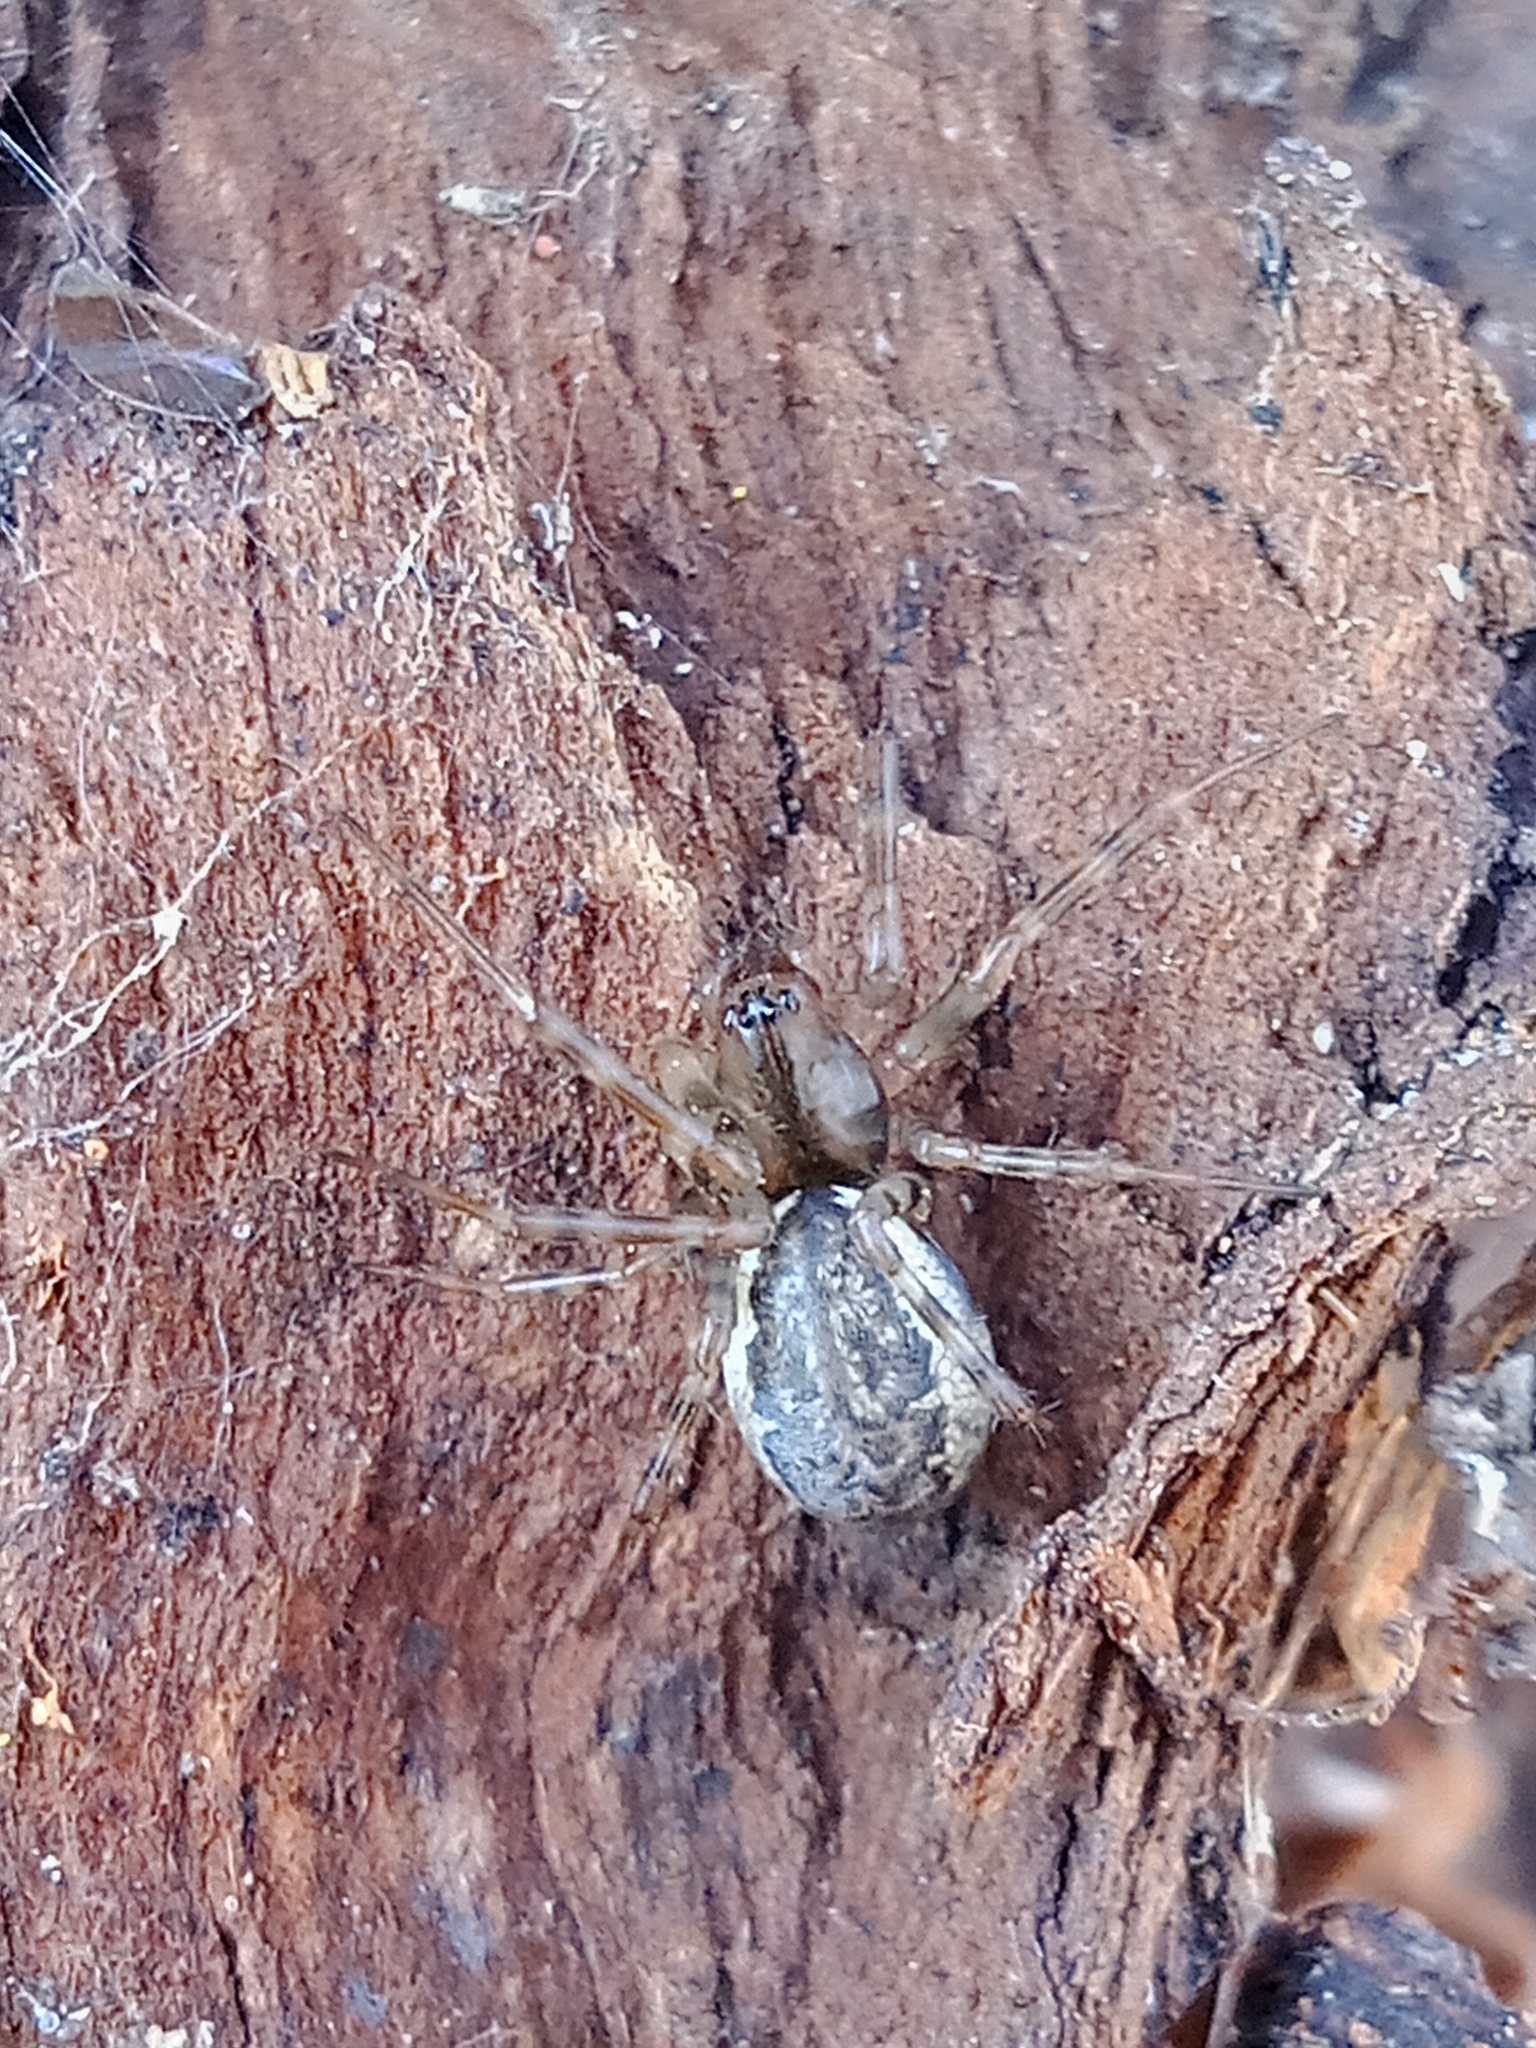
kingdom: Animalia
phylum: Arthropoda
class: Arachnida
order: Araneae
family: Linyphiidae
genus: Neriene
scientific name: Neriene montana
